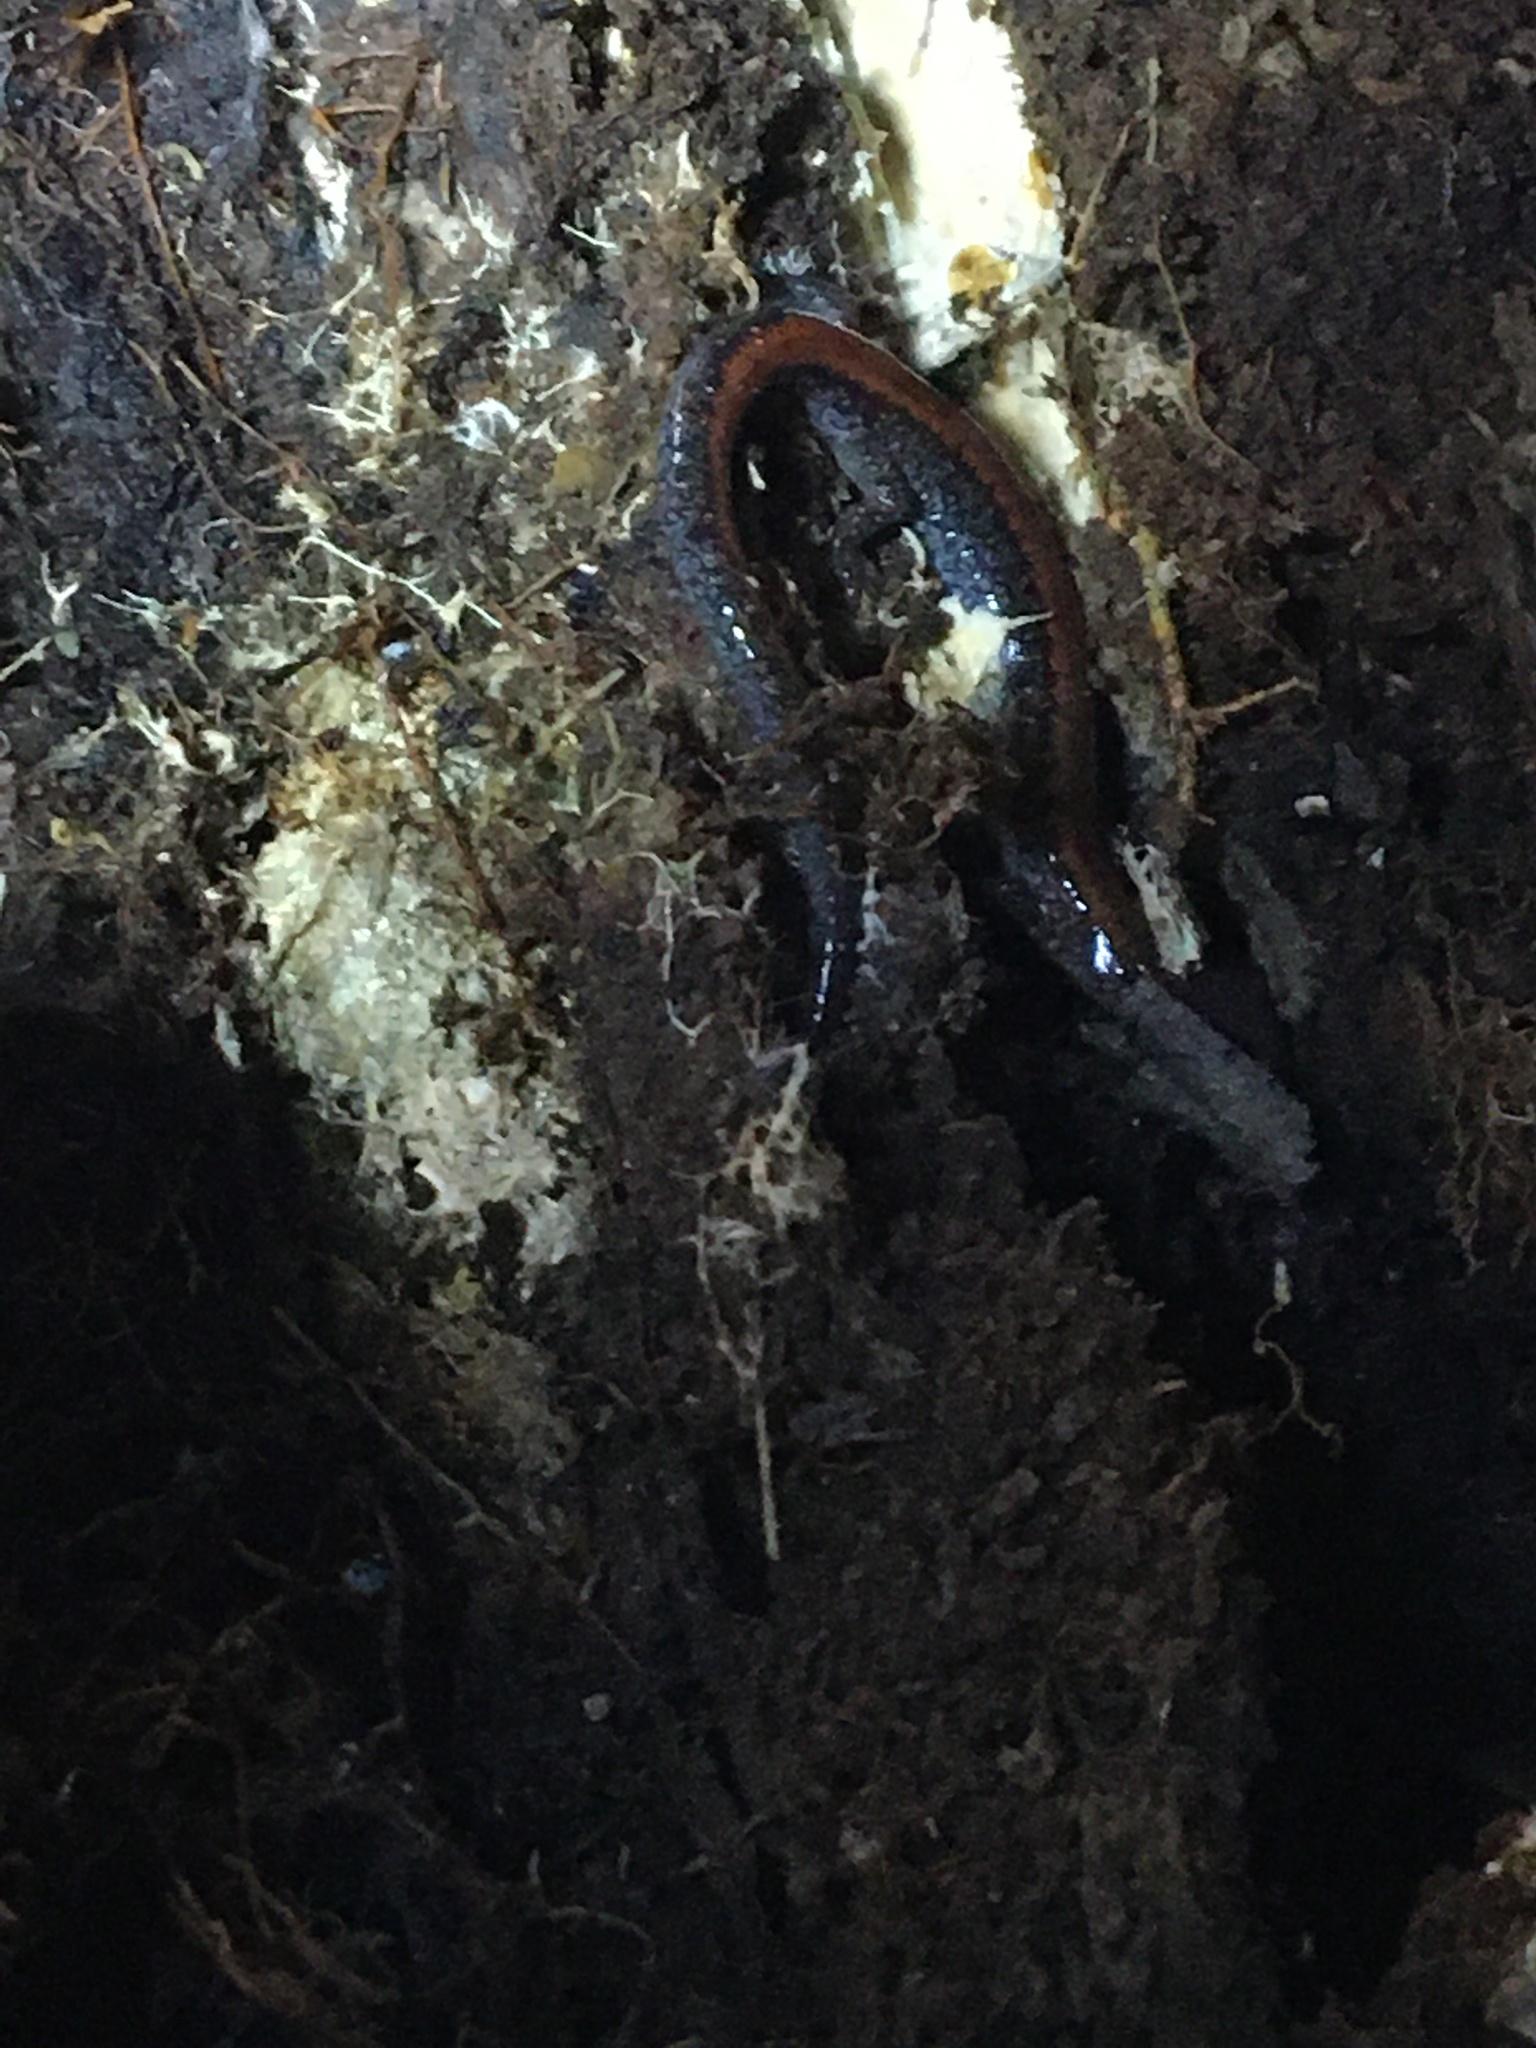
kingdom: Animalia
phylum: Chordata
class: Amphibia
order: Caudata
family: Plethodontidae
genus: Plethodon
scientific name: Plethodon cinereus
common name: Redback salamander
